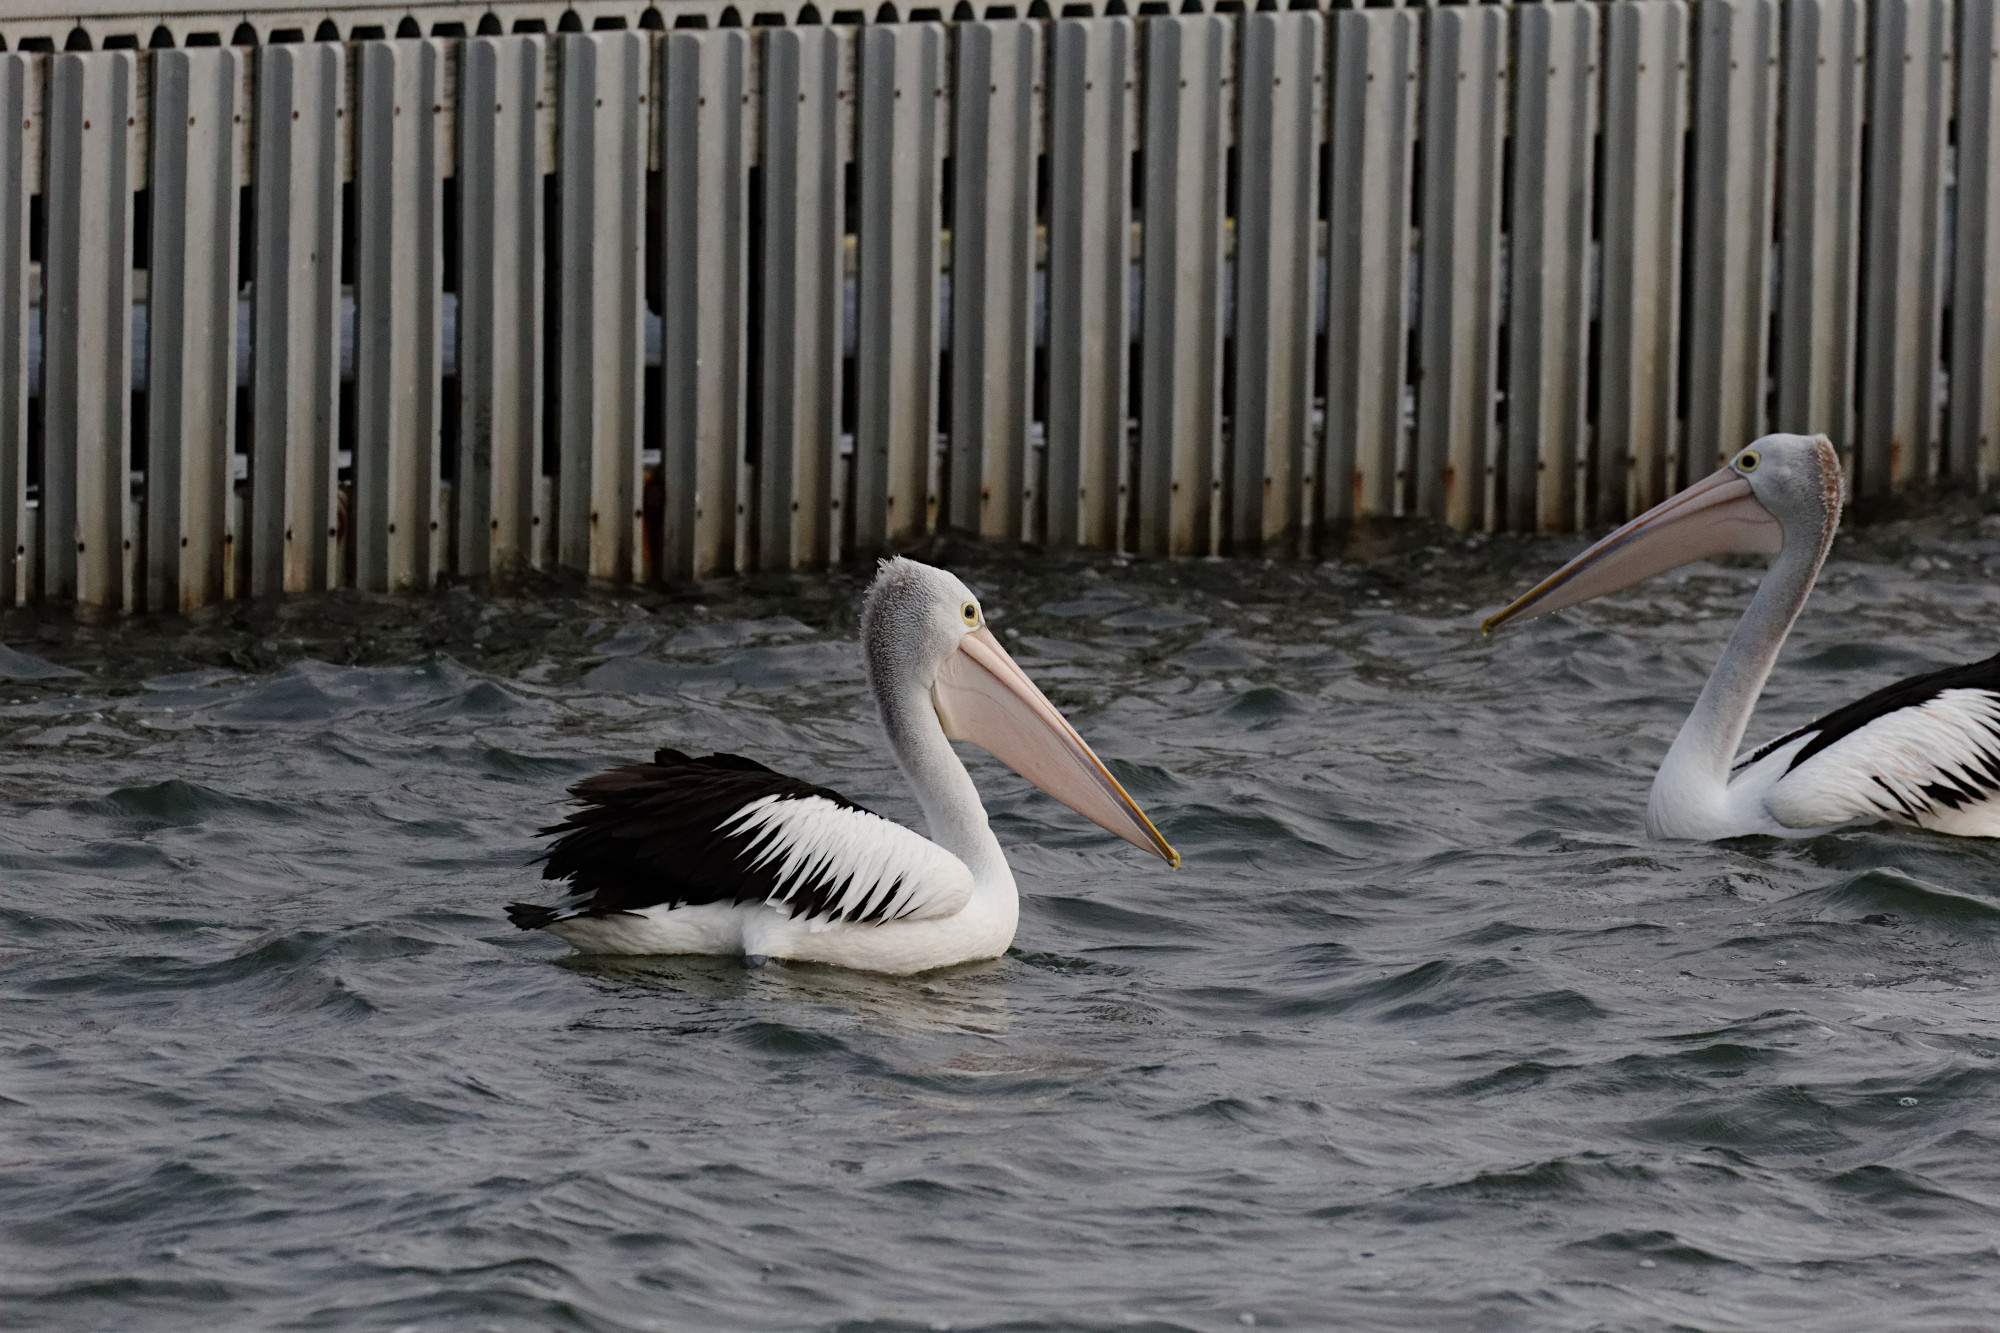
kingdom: Animalia
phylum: Chordata
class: Aves
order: Pelecaniformes
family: Pelecanidae
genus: Pelecanus
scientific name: Pelecanus conspicillatus
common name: Australian pelican
